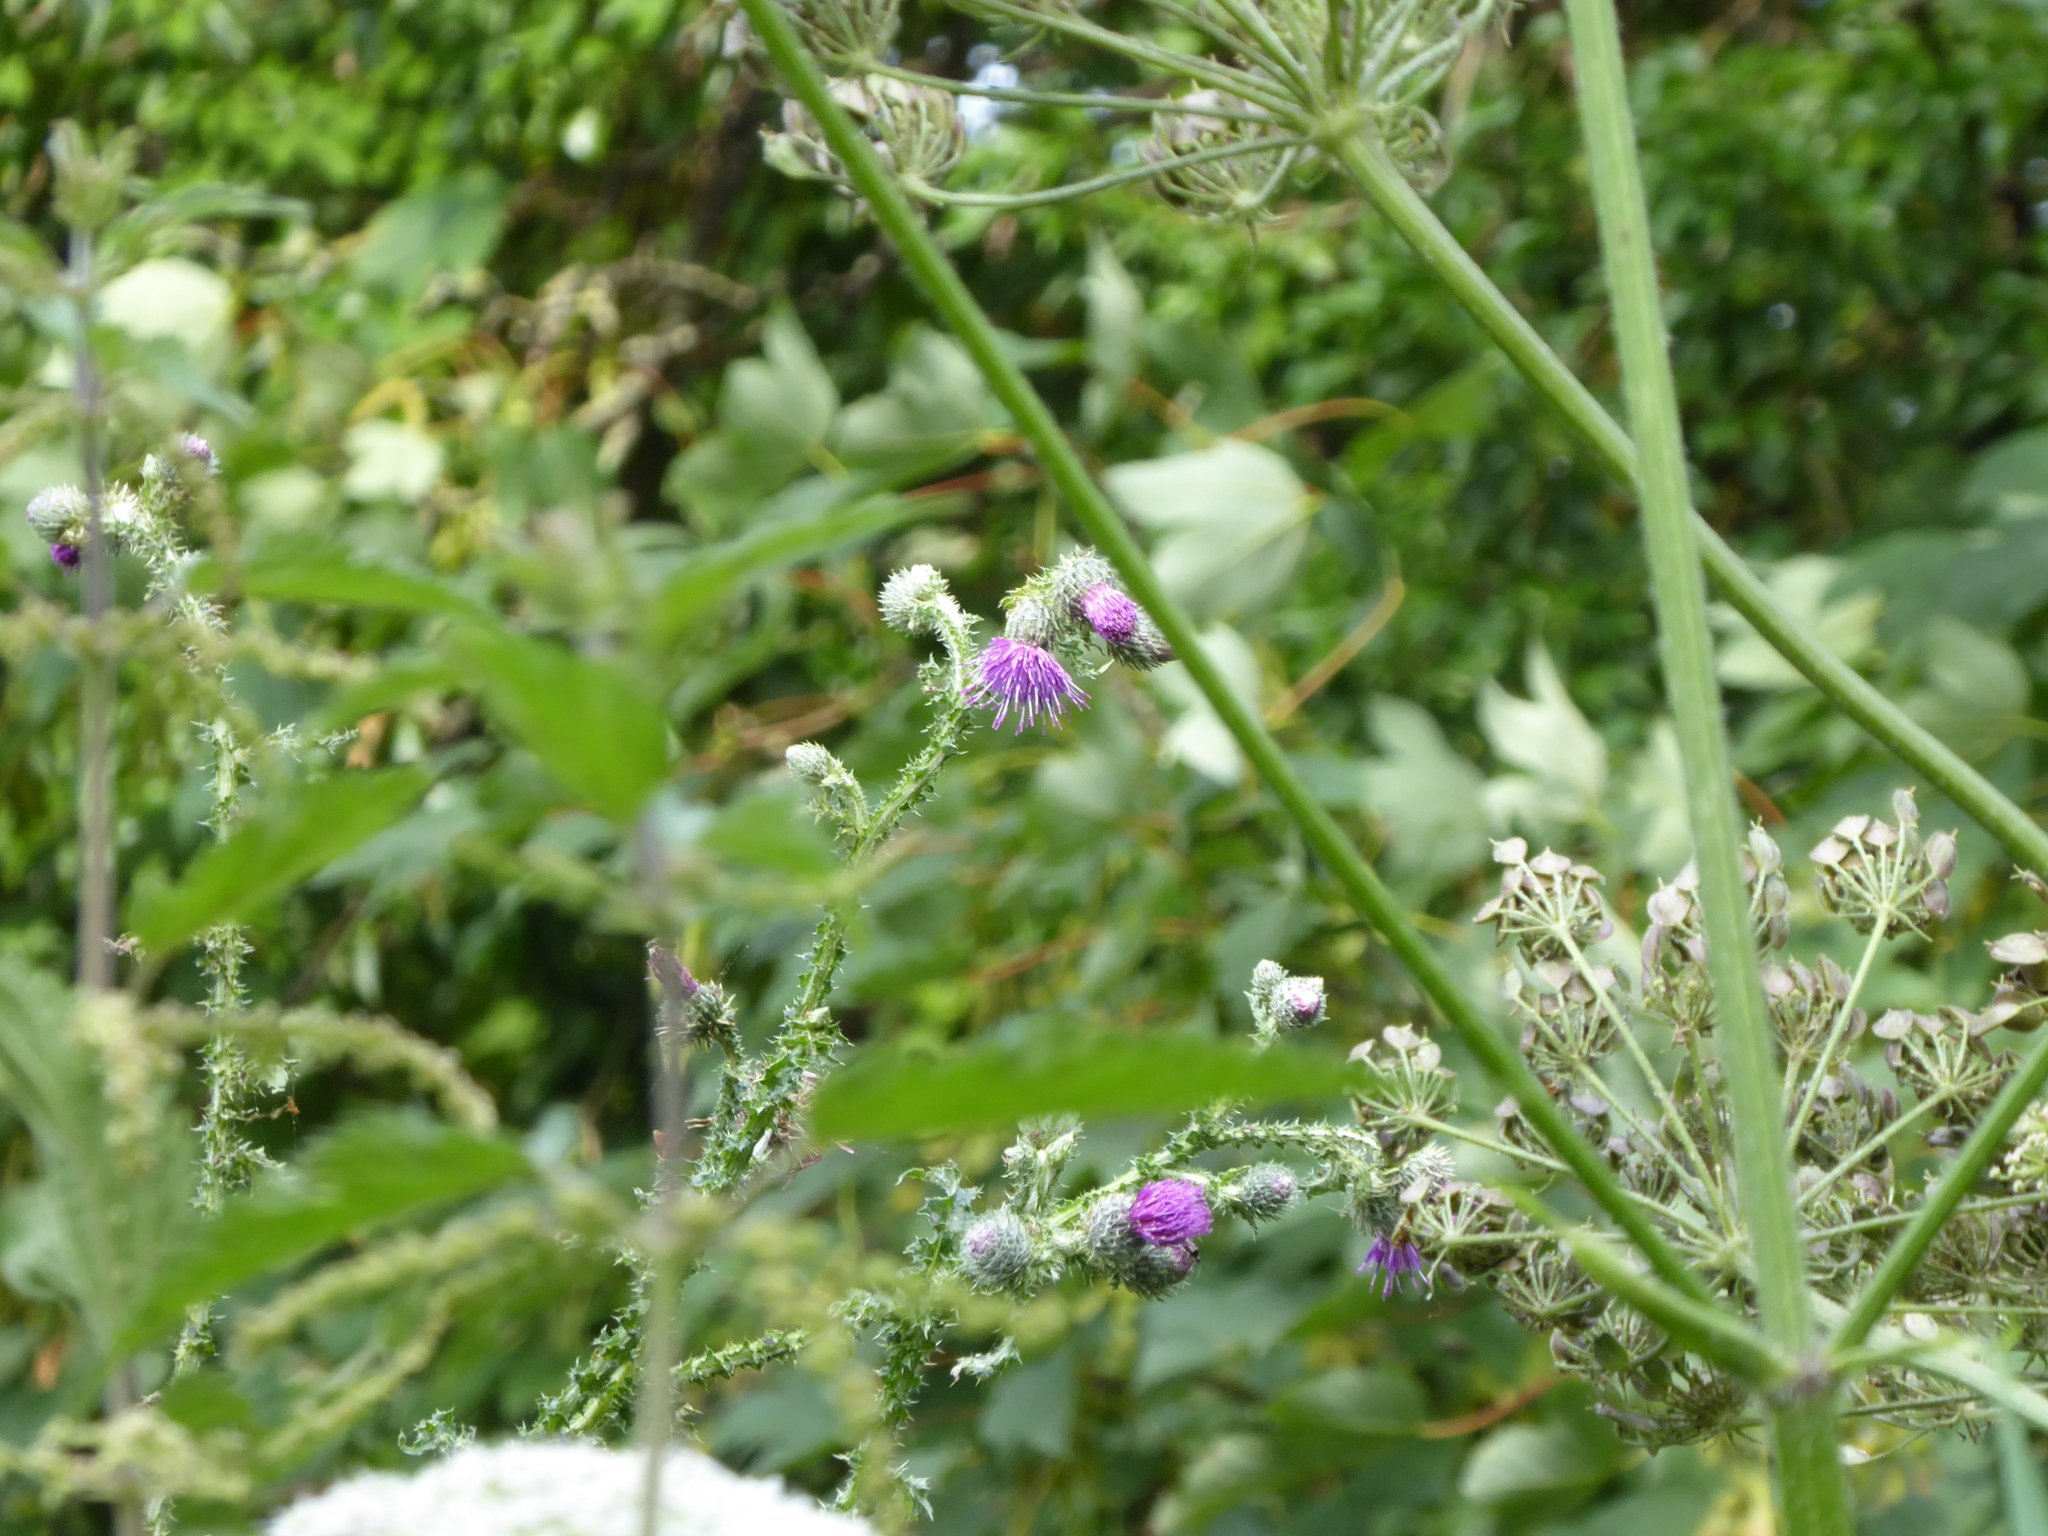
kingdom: Plantae
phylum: Tracheophyta
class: Magnoliopsida
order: Asterales
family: Asteraceae
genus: Carduus
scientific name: Carduus crispus
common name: Welted thistle
